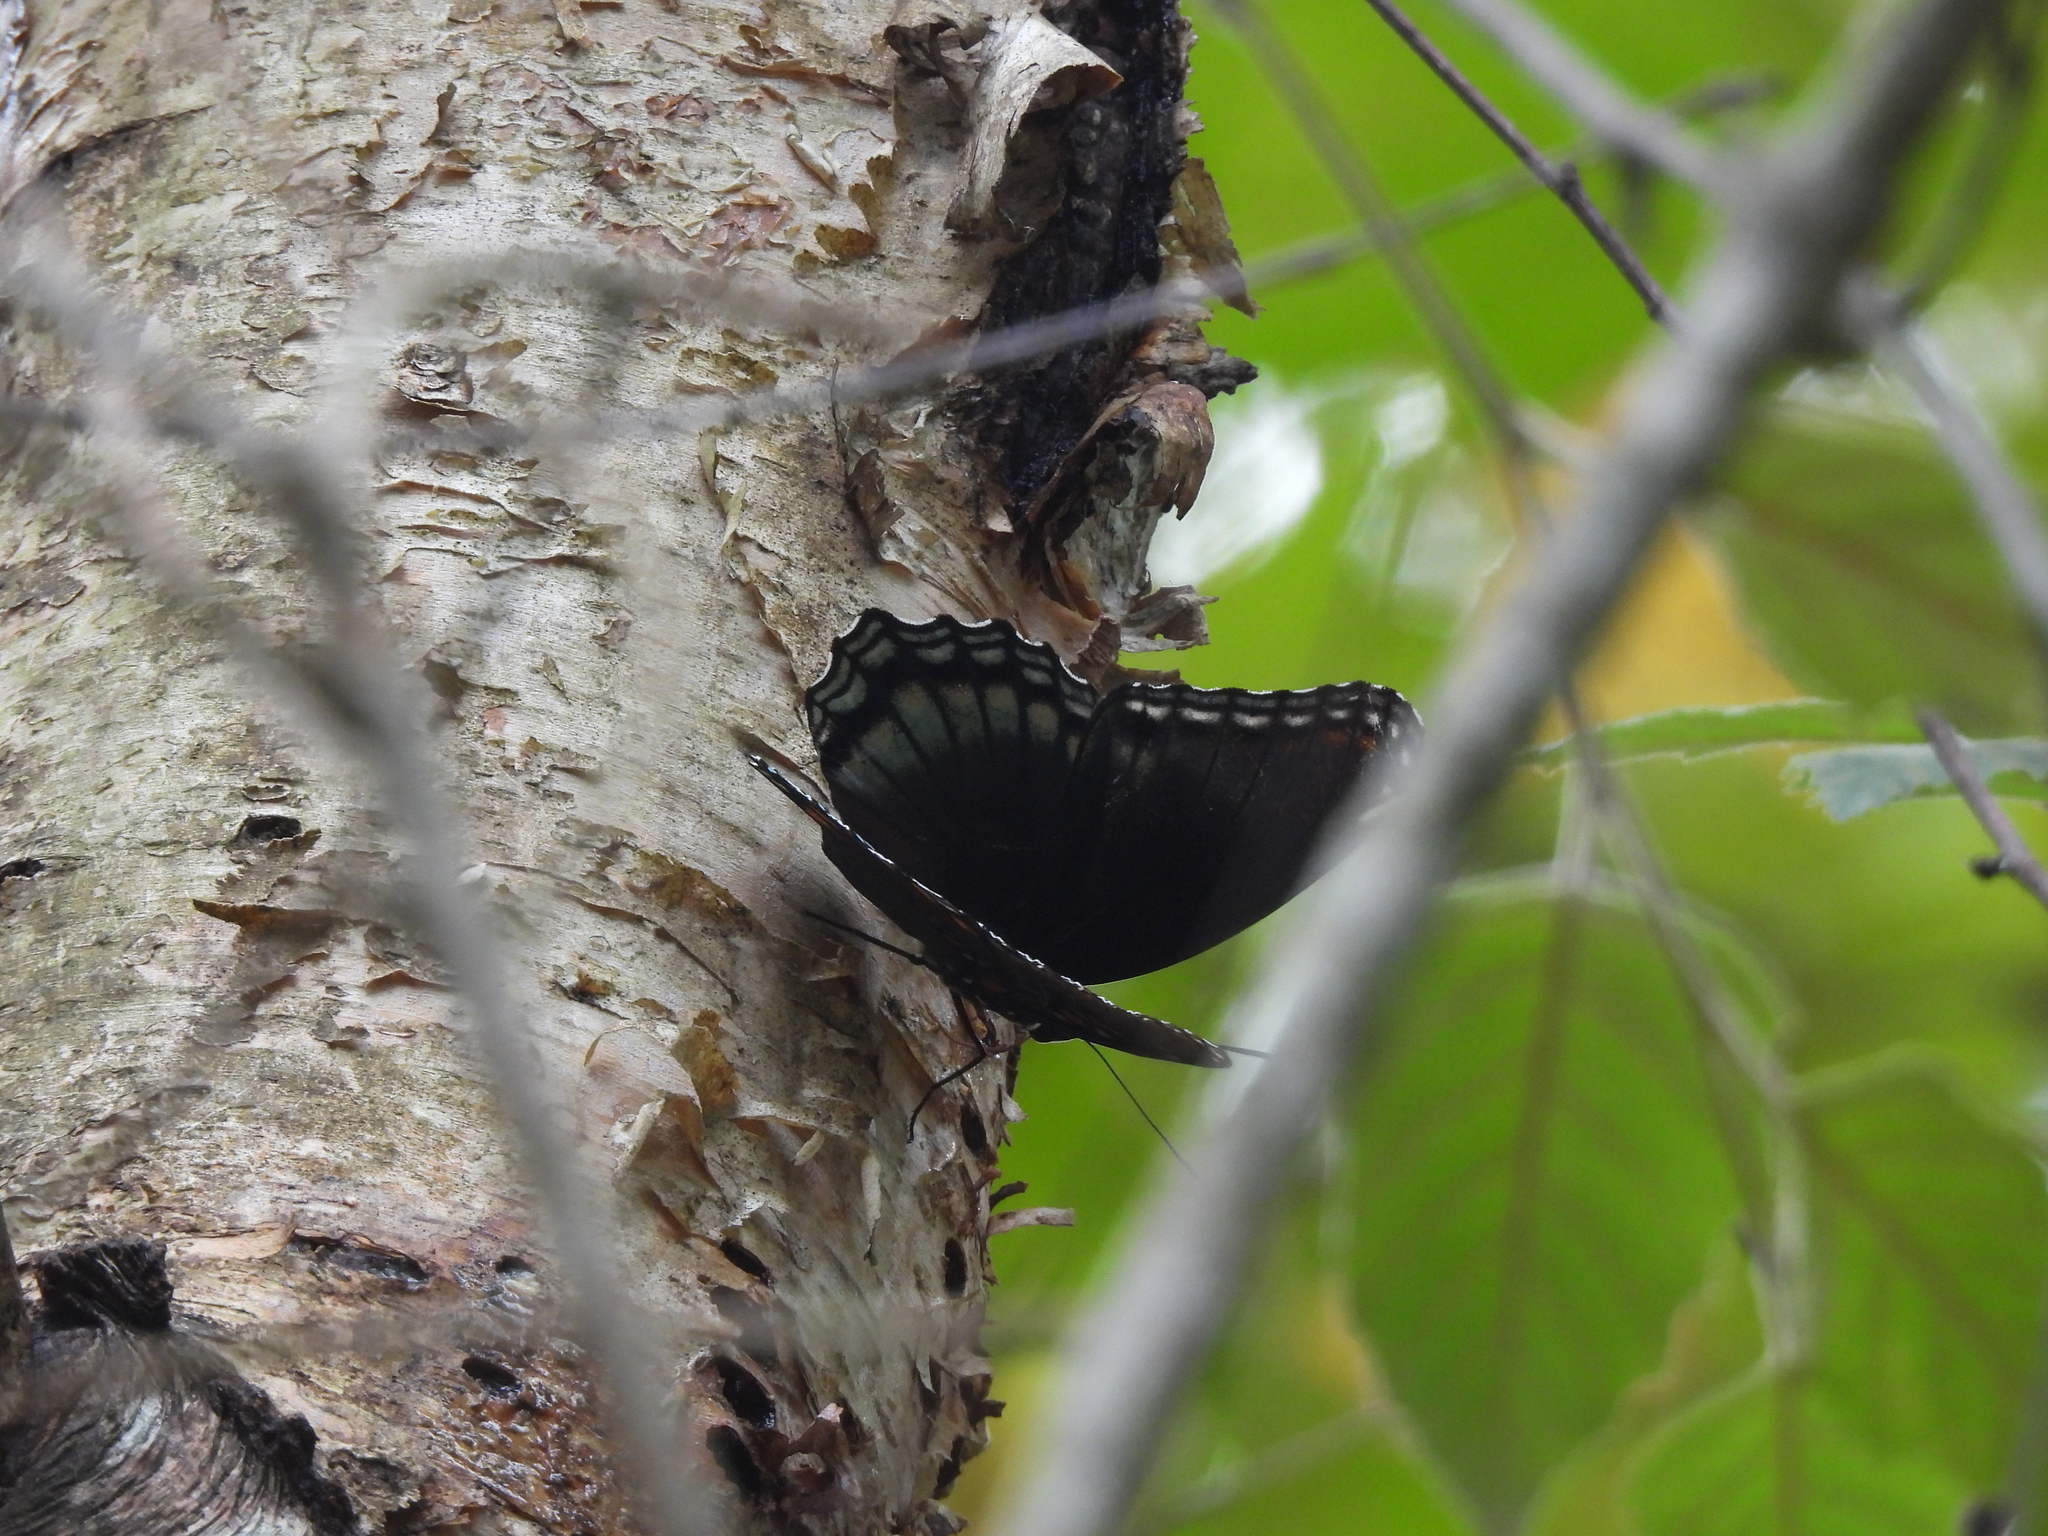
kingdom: Animalia
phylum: Arthropoda
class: Insecta
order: Lepidoptera
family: Nymphalidae
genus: Limenitis
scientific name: Limenitis astyanax
